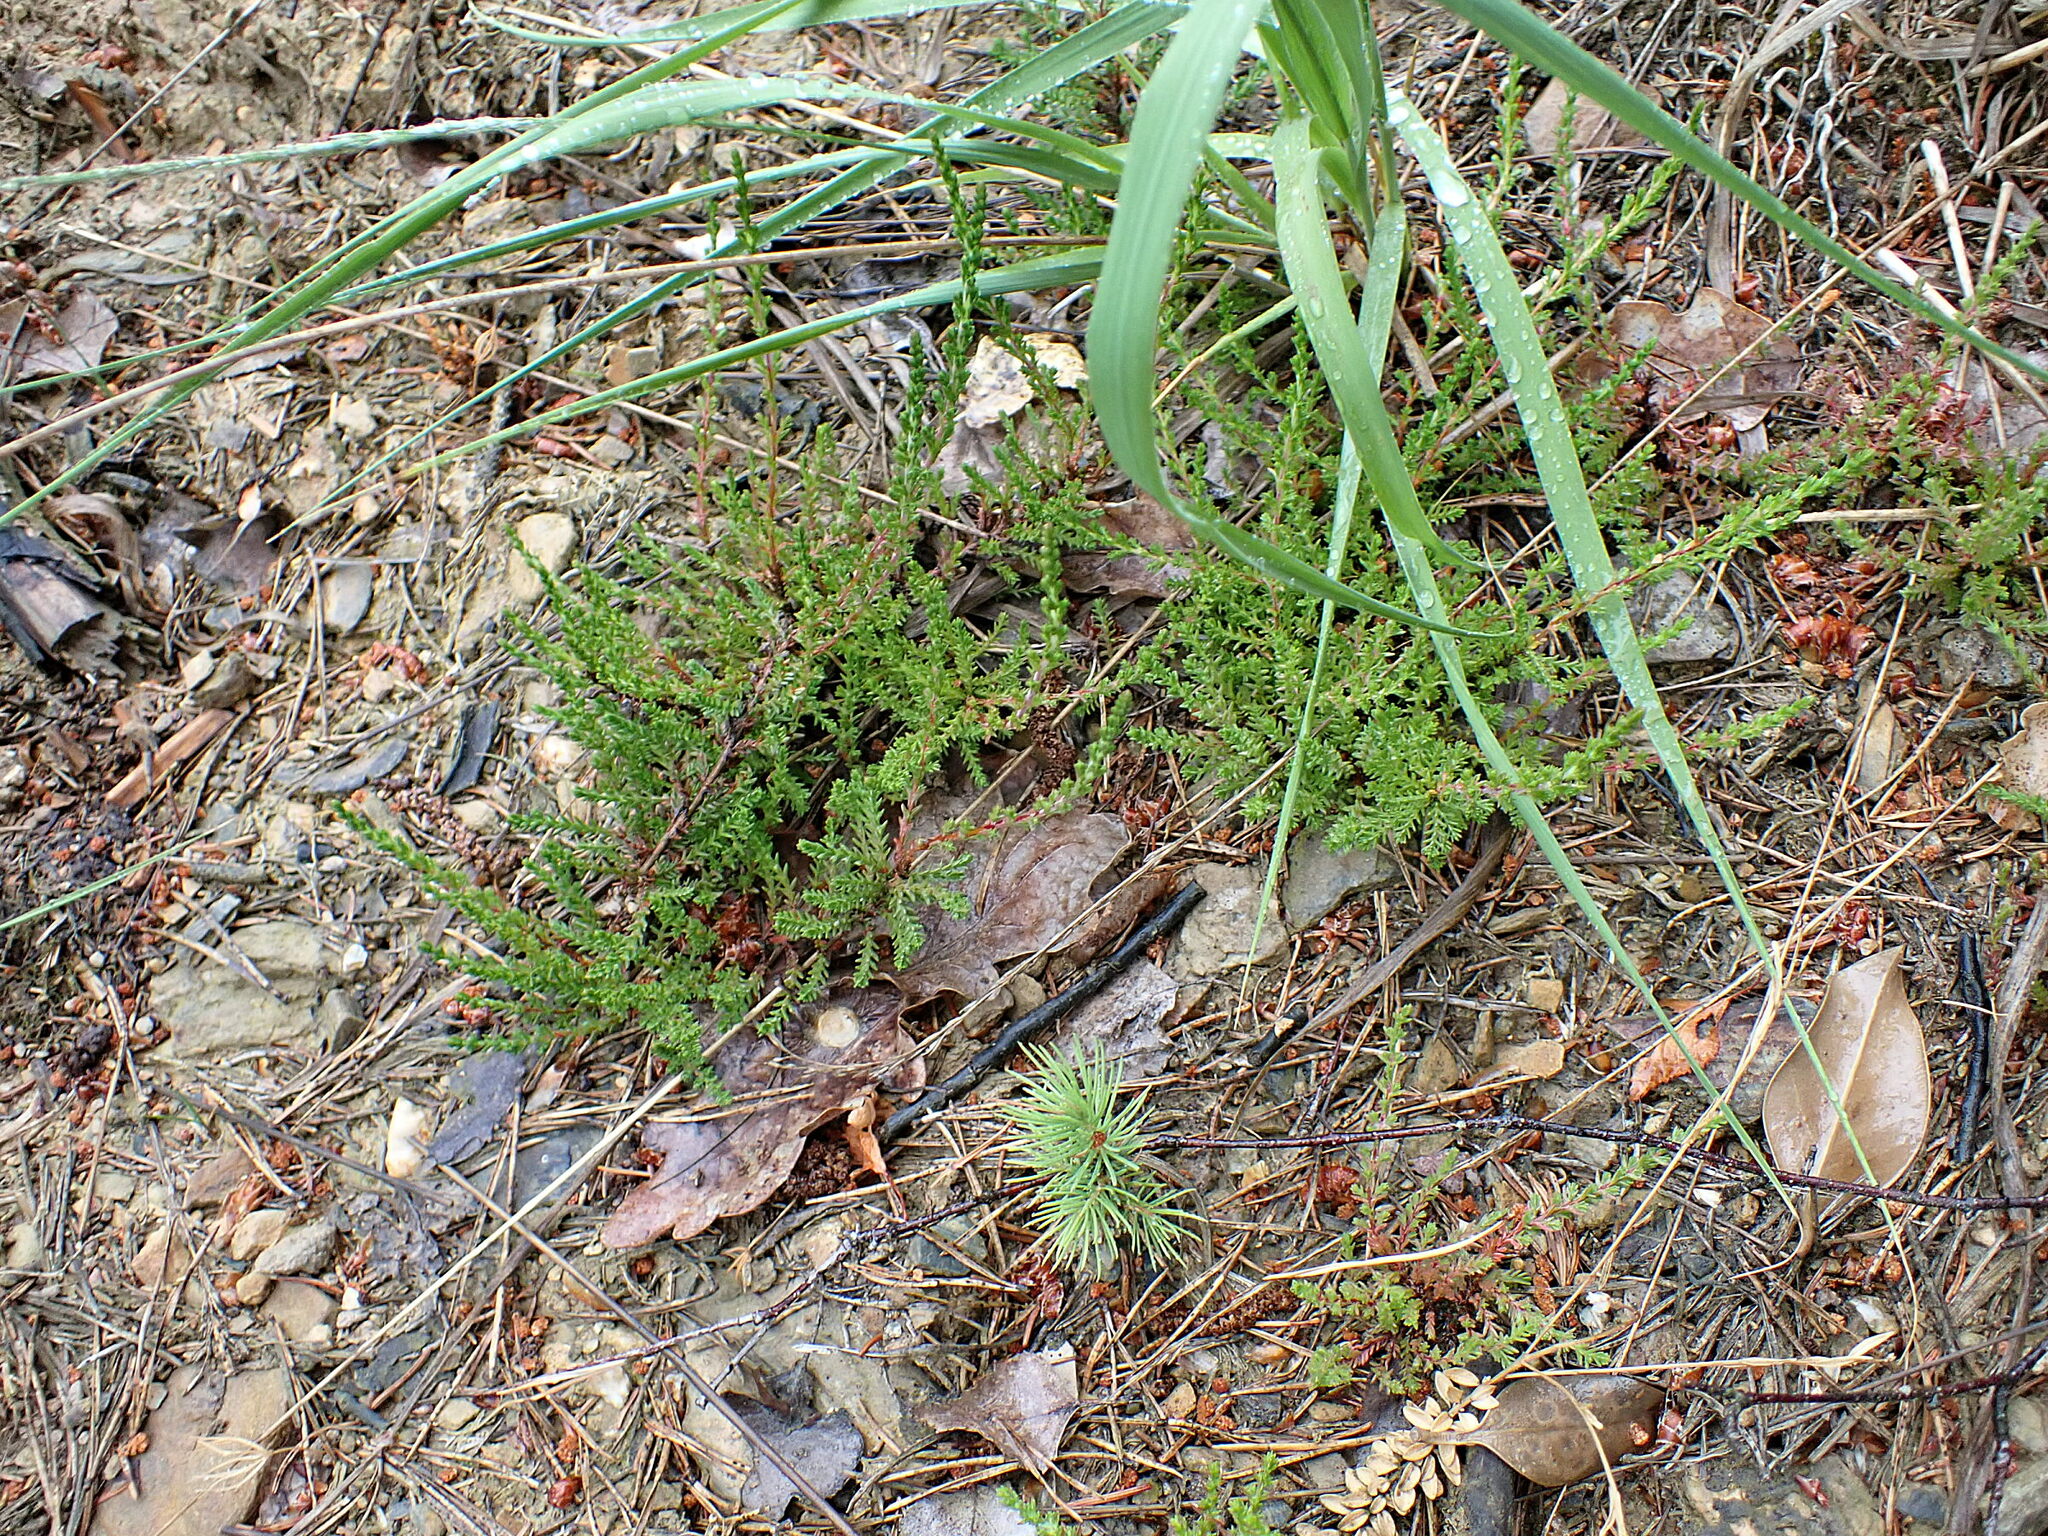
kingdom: Plantae
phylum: Tracheophyta
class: Magnoliopsida
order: Ericales
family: Ericaceae
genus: Calluna
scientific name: Calluna vulgaris
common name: Heather
